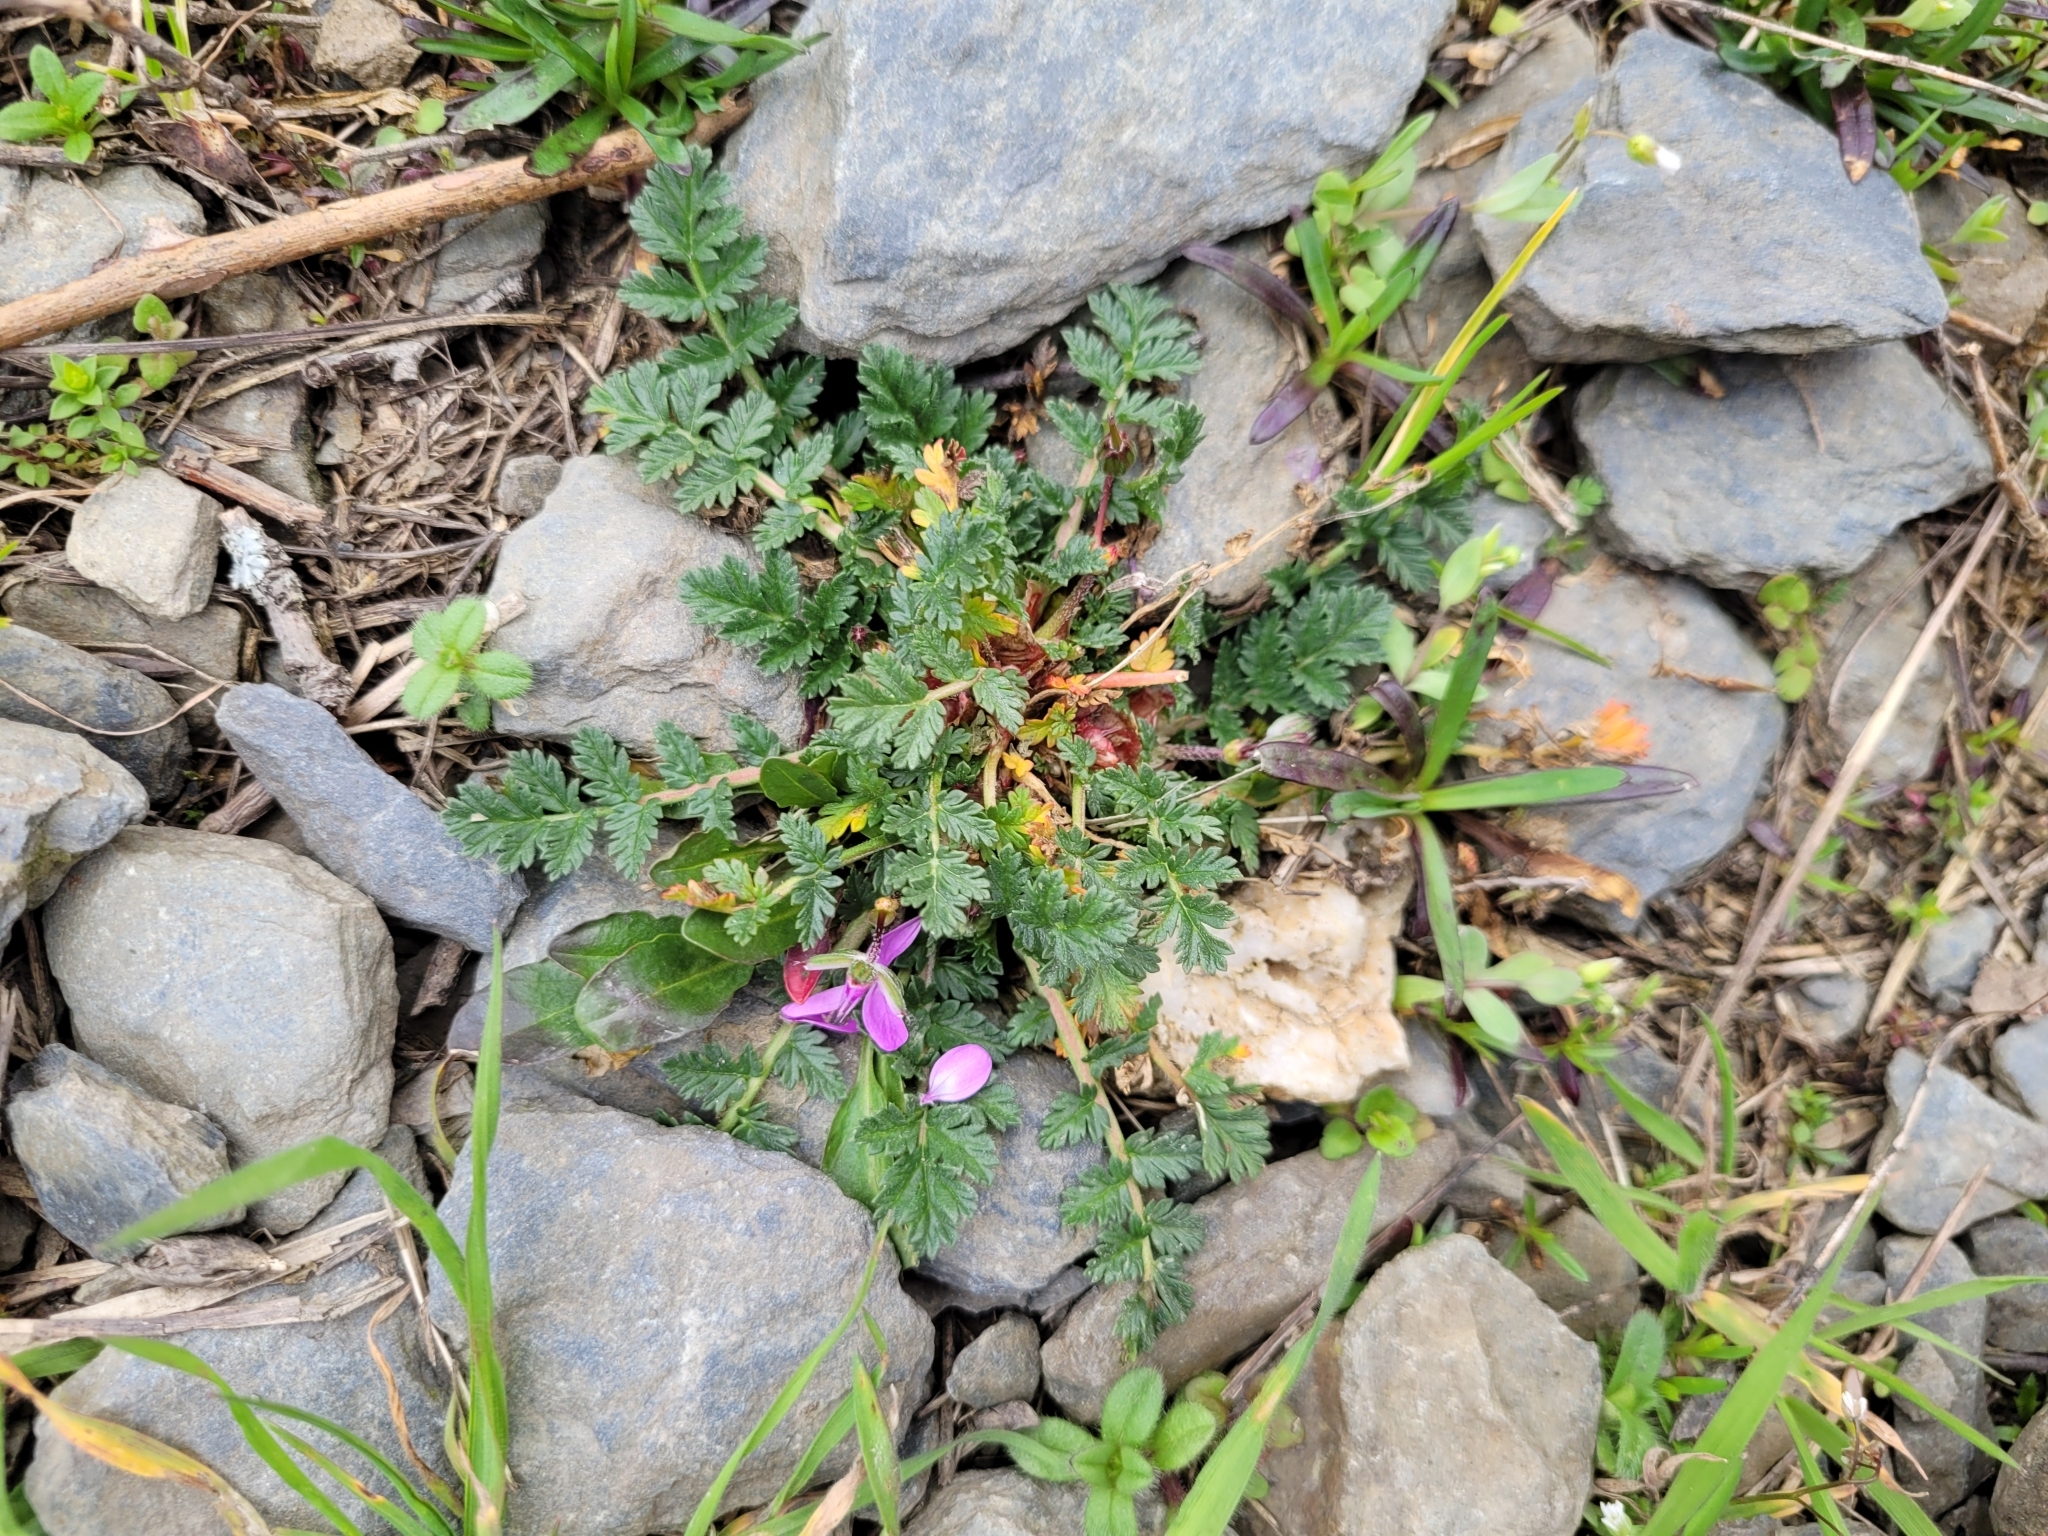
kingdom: Plantae
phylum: Tracheophyta
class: Magnoliopsida
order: Geraniales
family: Geraniaceae
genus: Erodium
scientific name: Erodium cicutarium
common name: Common stork's-bill
